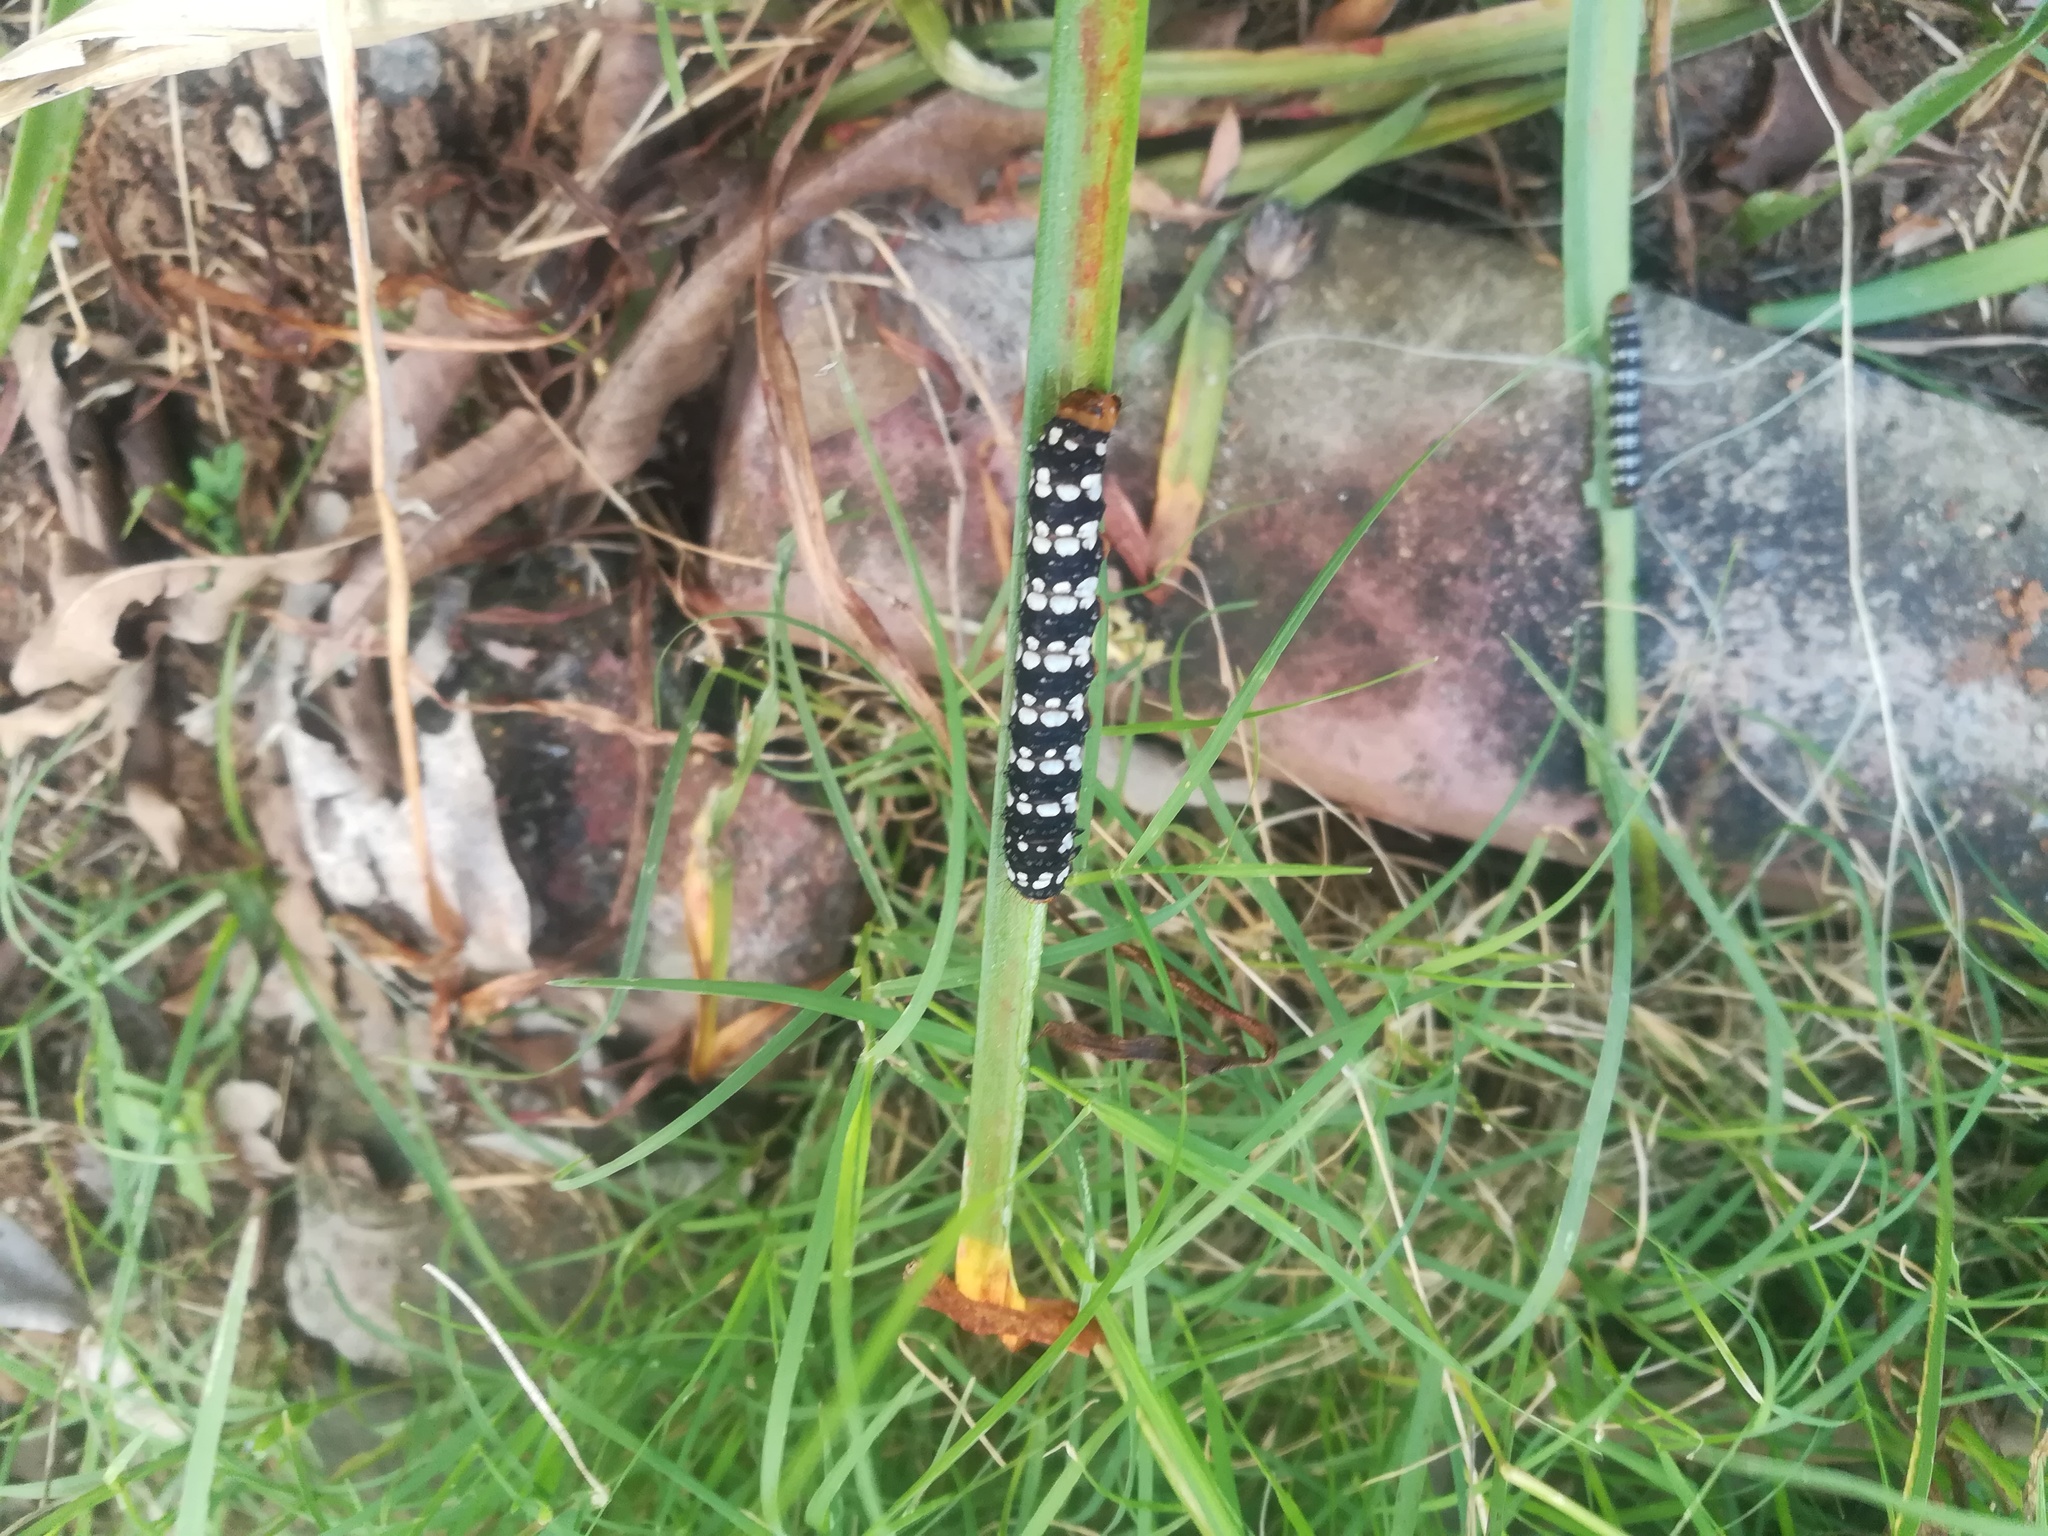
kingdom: Animalia
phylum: Arthropoda
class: Insecta
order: Lepidoptera
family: Noctuidae
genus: Brithys
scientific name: Brithys crini
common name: Kew arches
